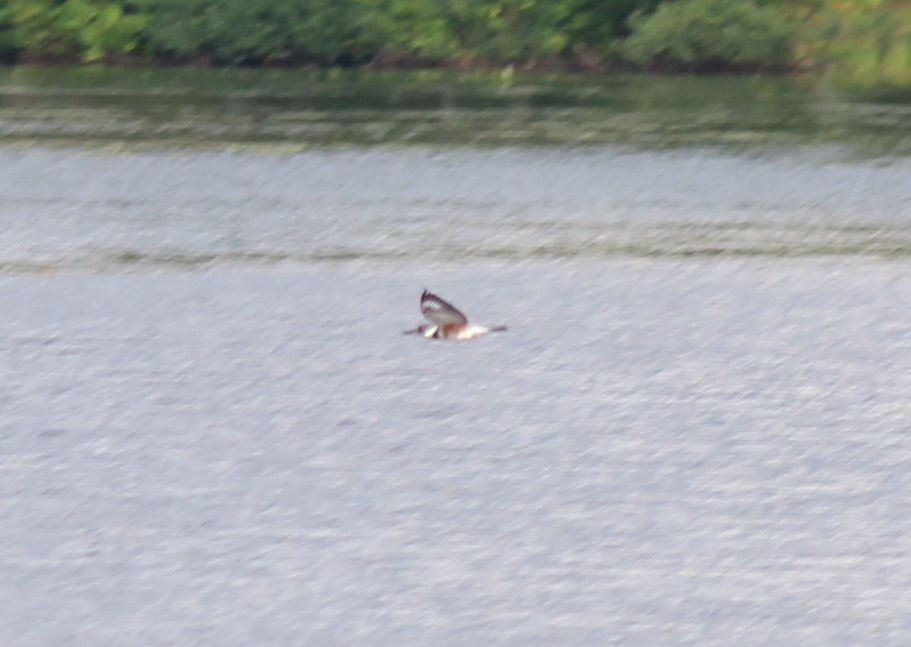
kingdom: Animalia
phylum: Chordata
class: Aves
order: Coraciiformes
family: Alcedinidae
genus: Megaceryle
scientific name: Megaceryle alcyon
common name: Belted kingfisher
